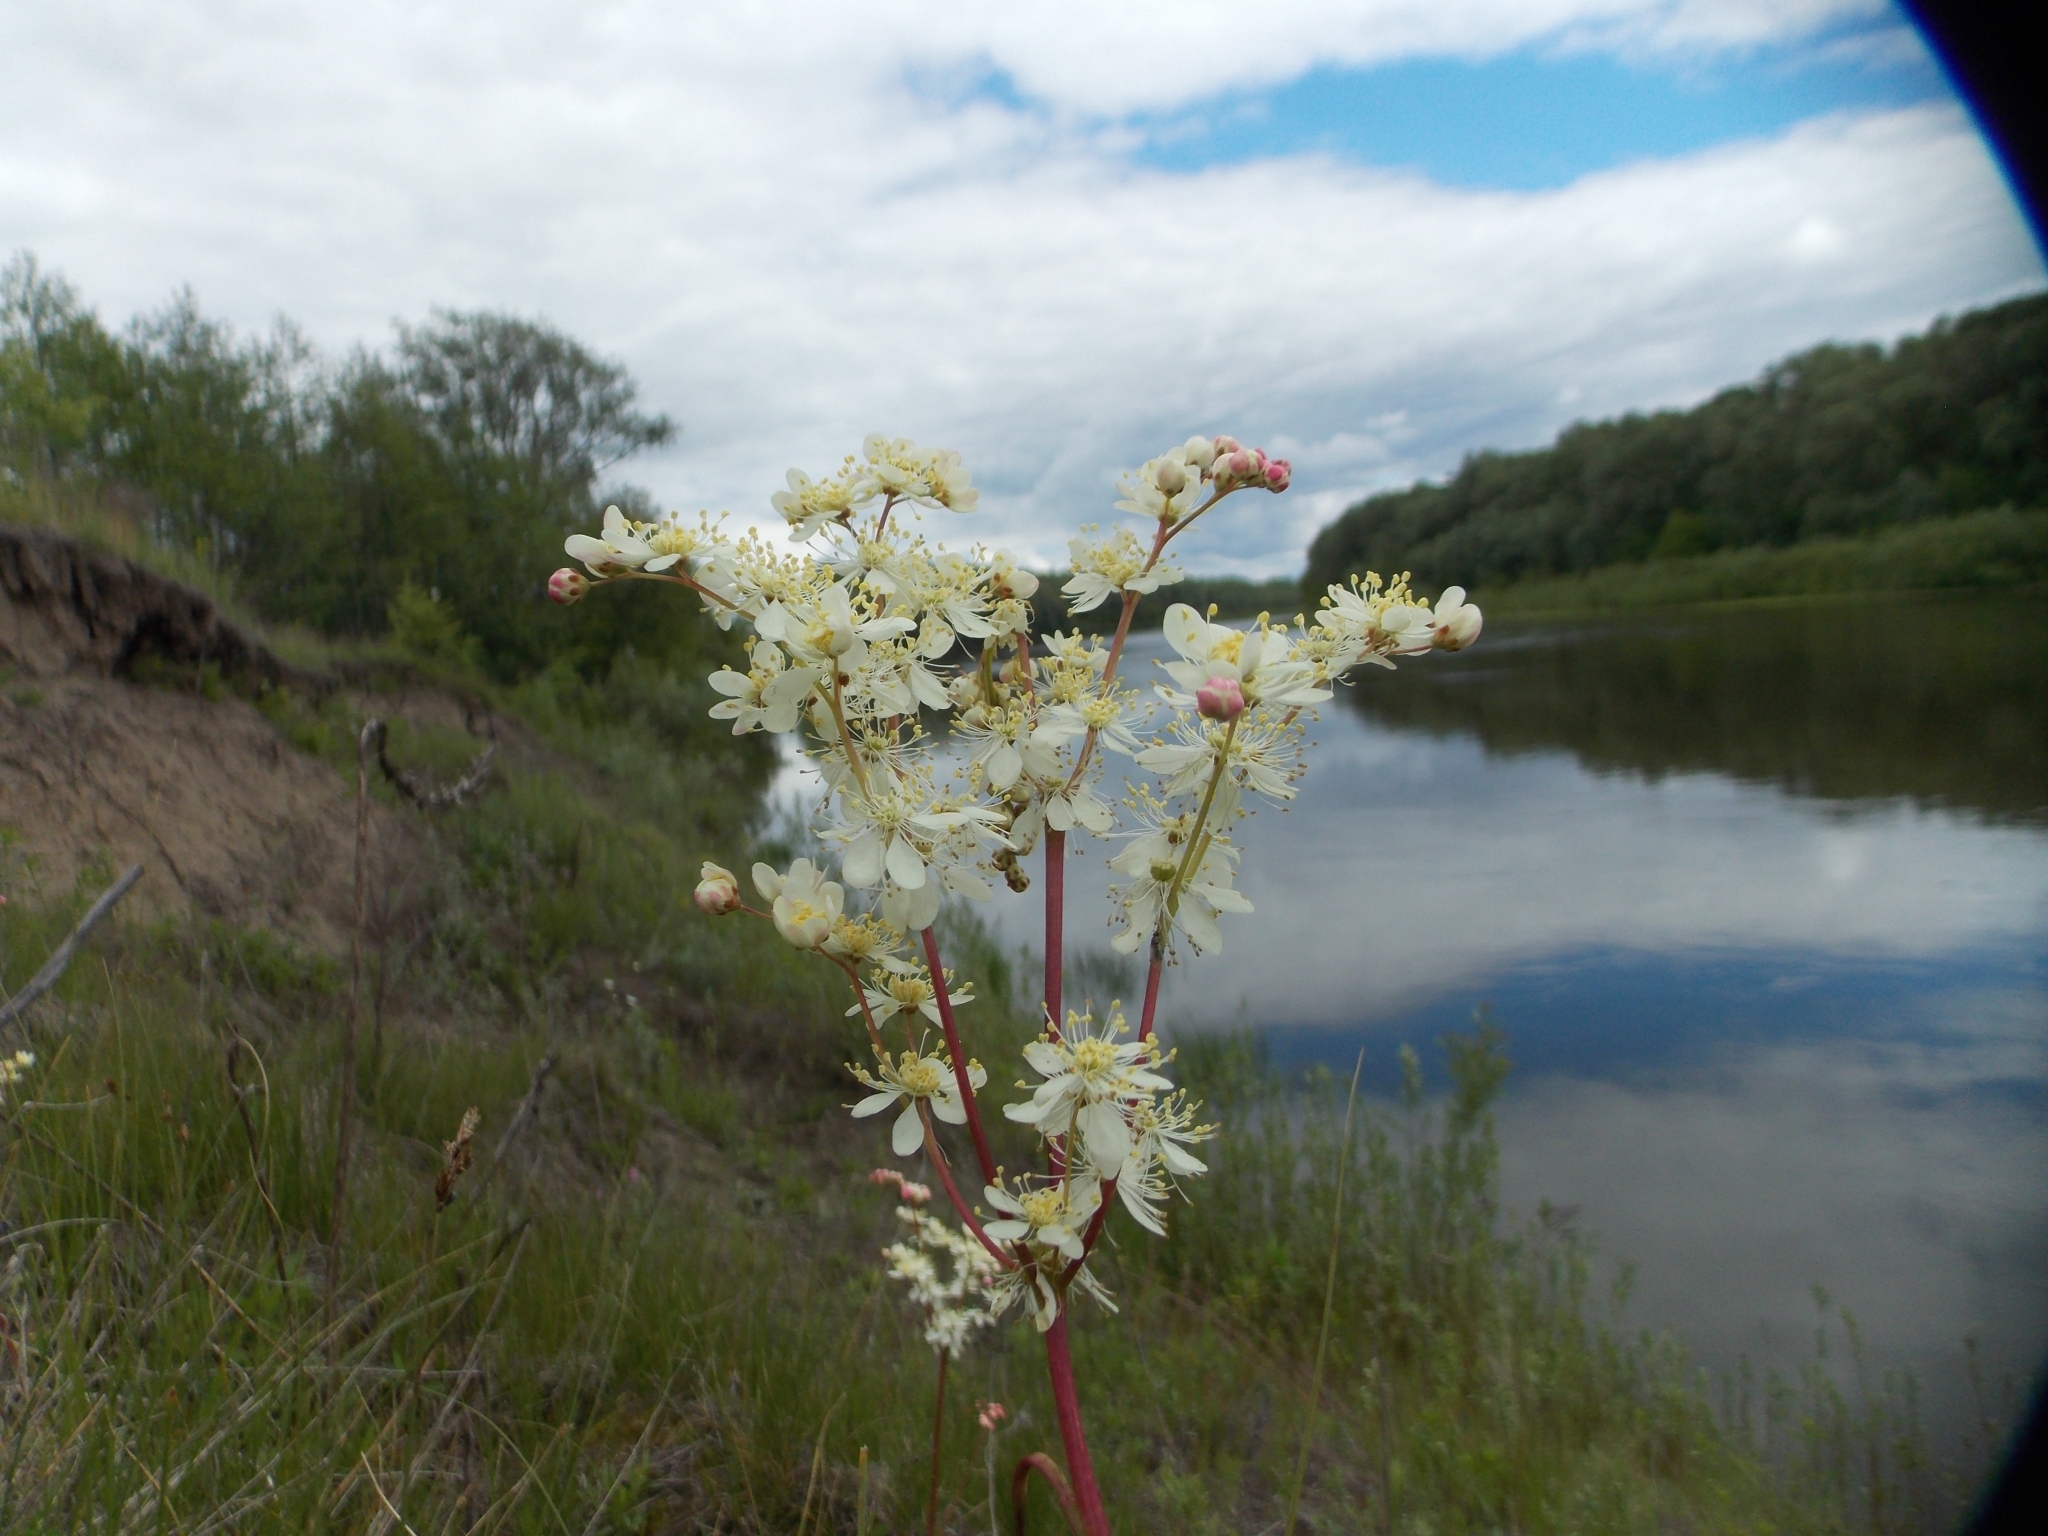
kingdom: Plantae
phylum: Tracheophyta
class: Magnoliopsida
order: Rosales
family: Rosaceae
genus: Filipendula
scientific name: Filipendula vulgaris
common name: Dropwort
